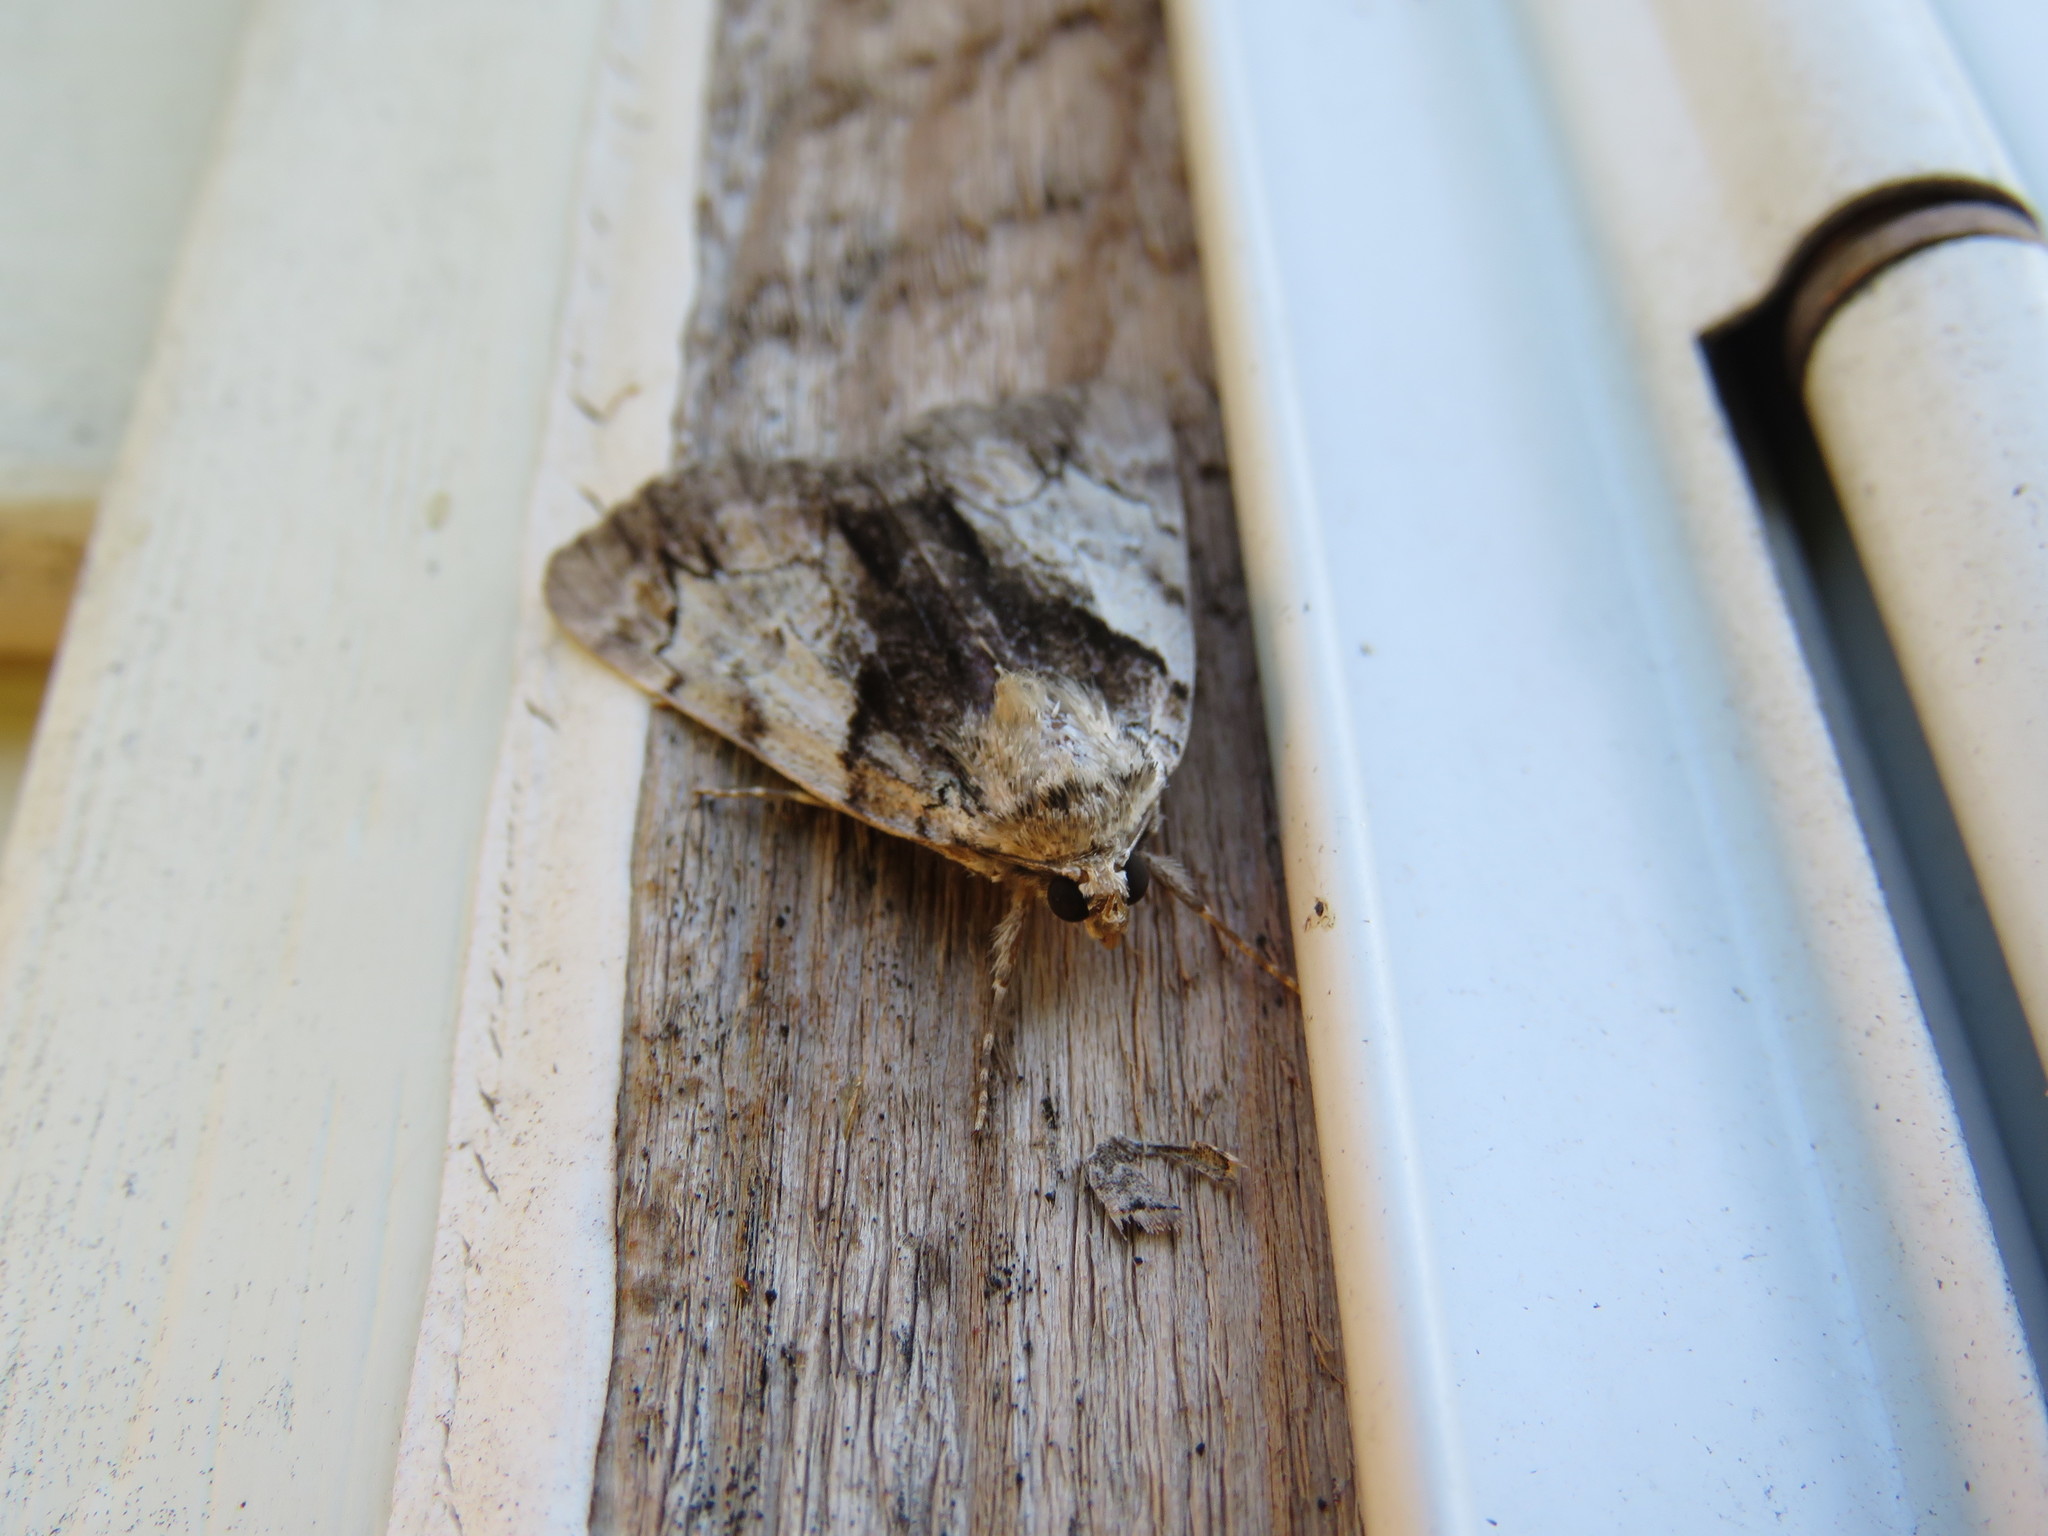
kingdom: Animalia
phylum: Arthropoda
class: Insecta
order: Lepidoptera
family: Erebidae
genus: Catocala
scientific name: Catocala crataegi
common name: Hawthorn underwing moth
